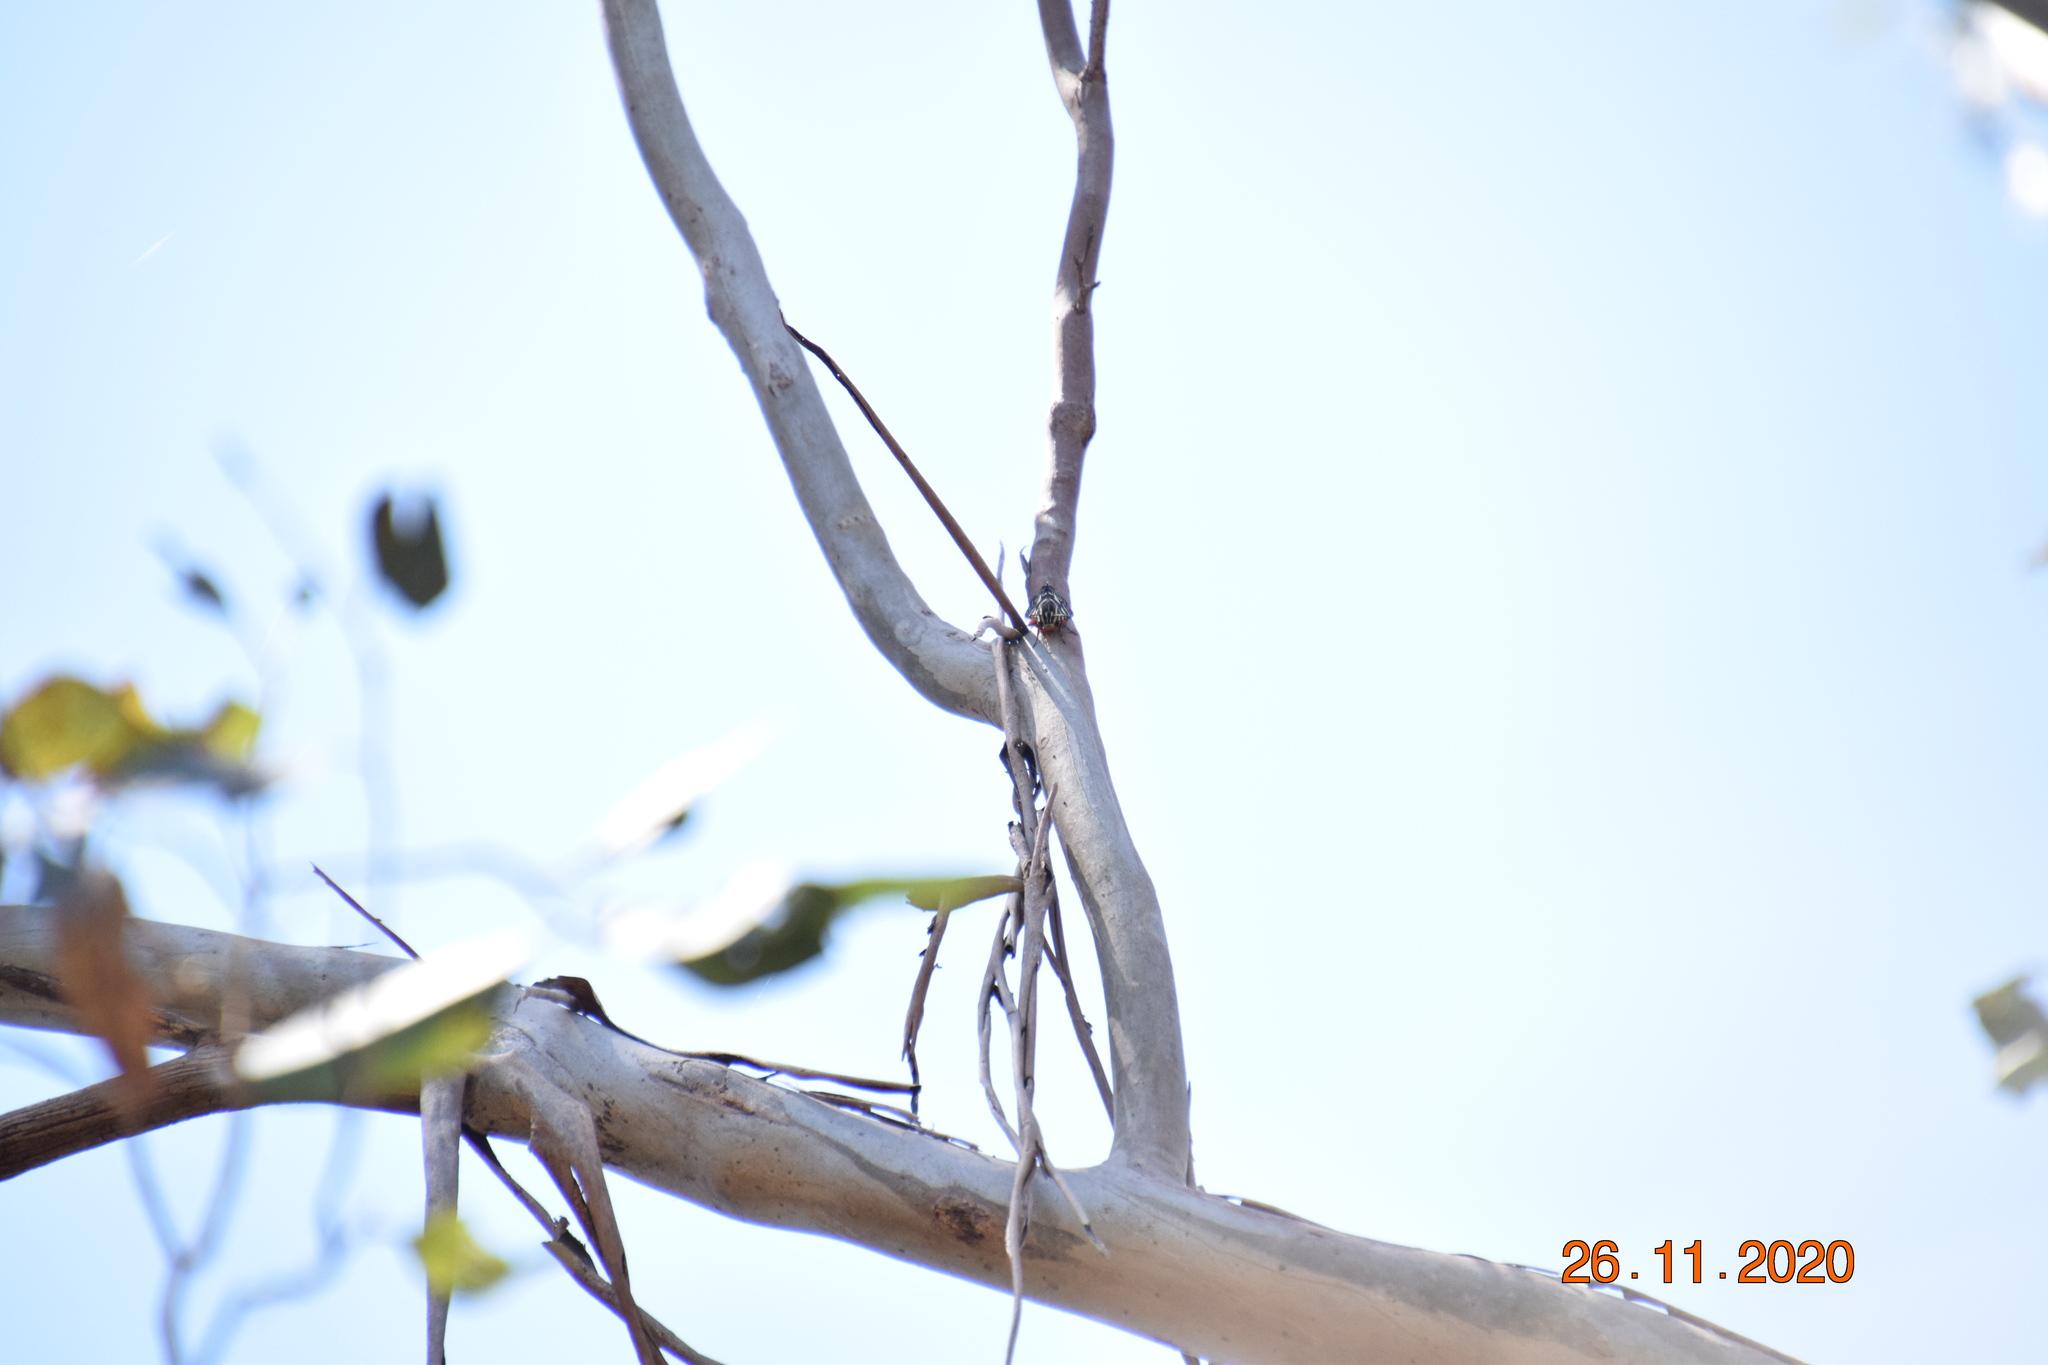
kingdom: Animalia
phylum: Arthropoda
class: Insecta
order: Lepidoptera
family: Noctuidae
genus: Comocrus
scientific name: Comocrus behri
